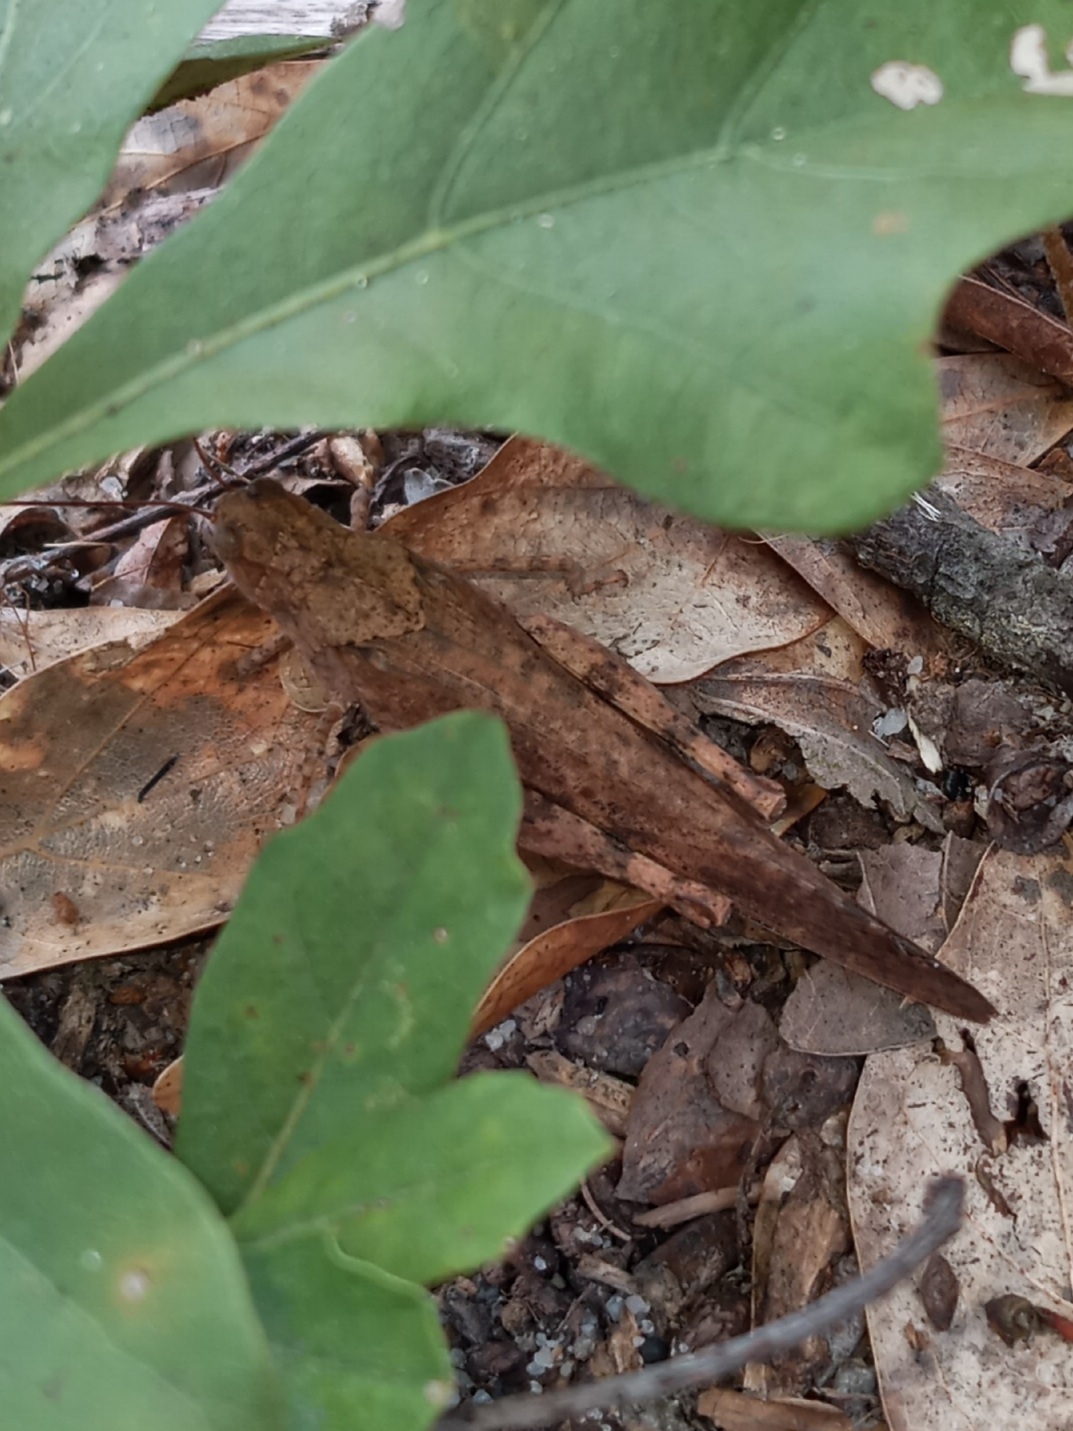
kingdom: Animalia
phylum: Arthropoda
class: Insecta
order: Orthoptera
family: Acrididae
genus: Dissosteira
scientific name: Dissosteira carolina
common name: Carolina grasshopper
